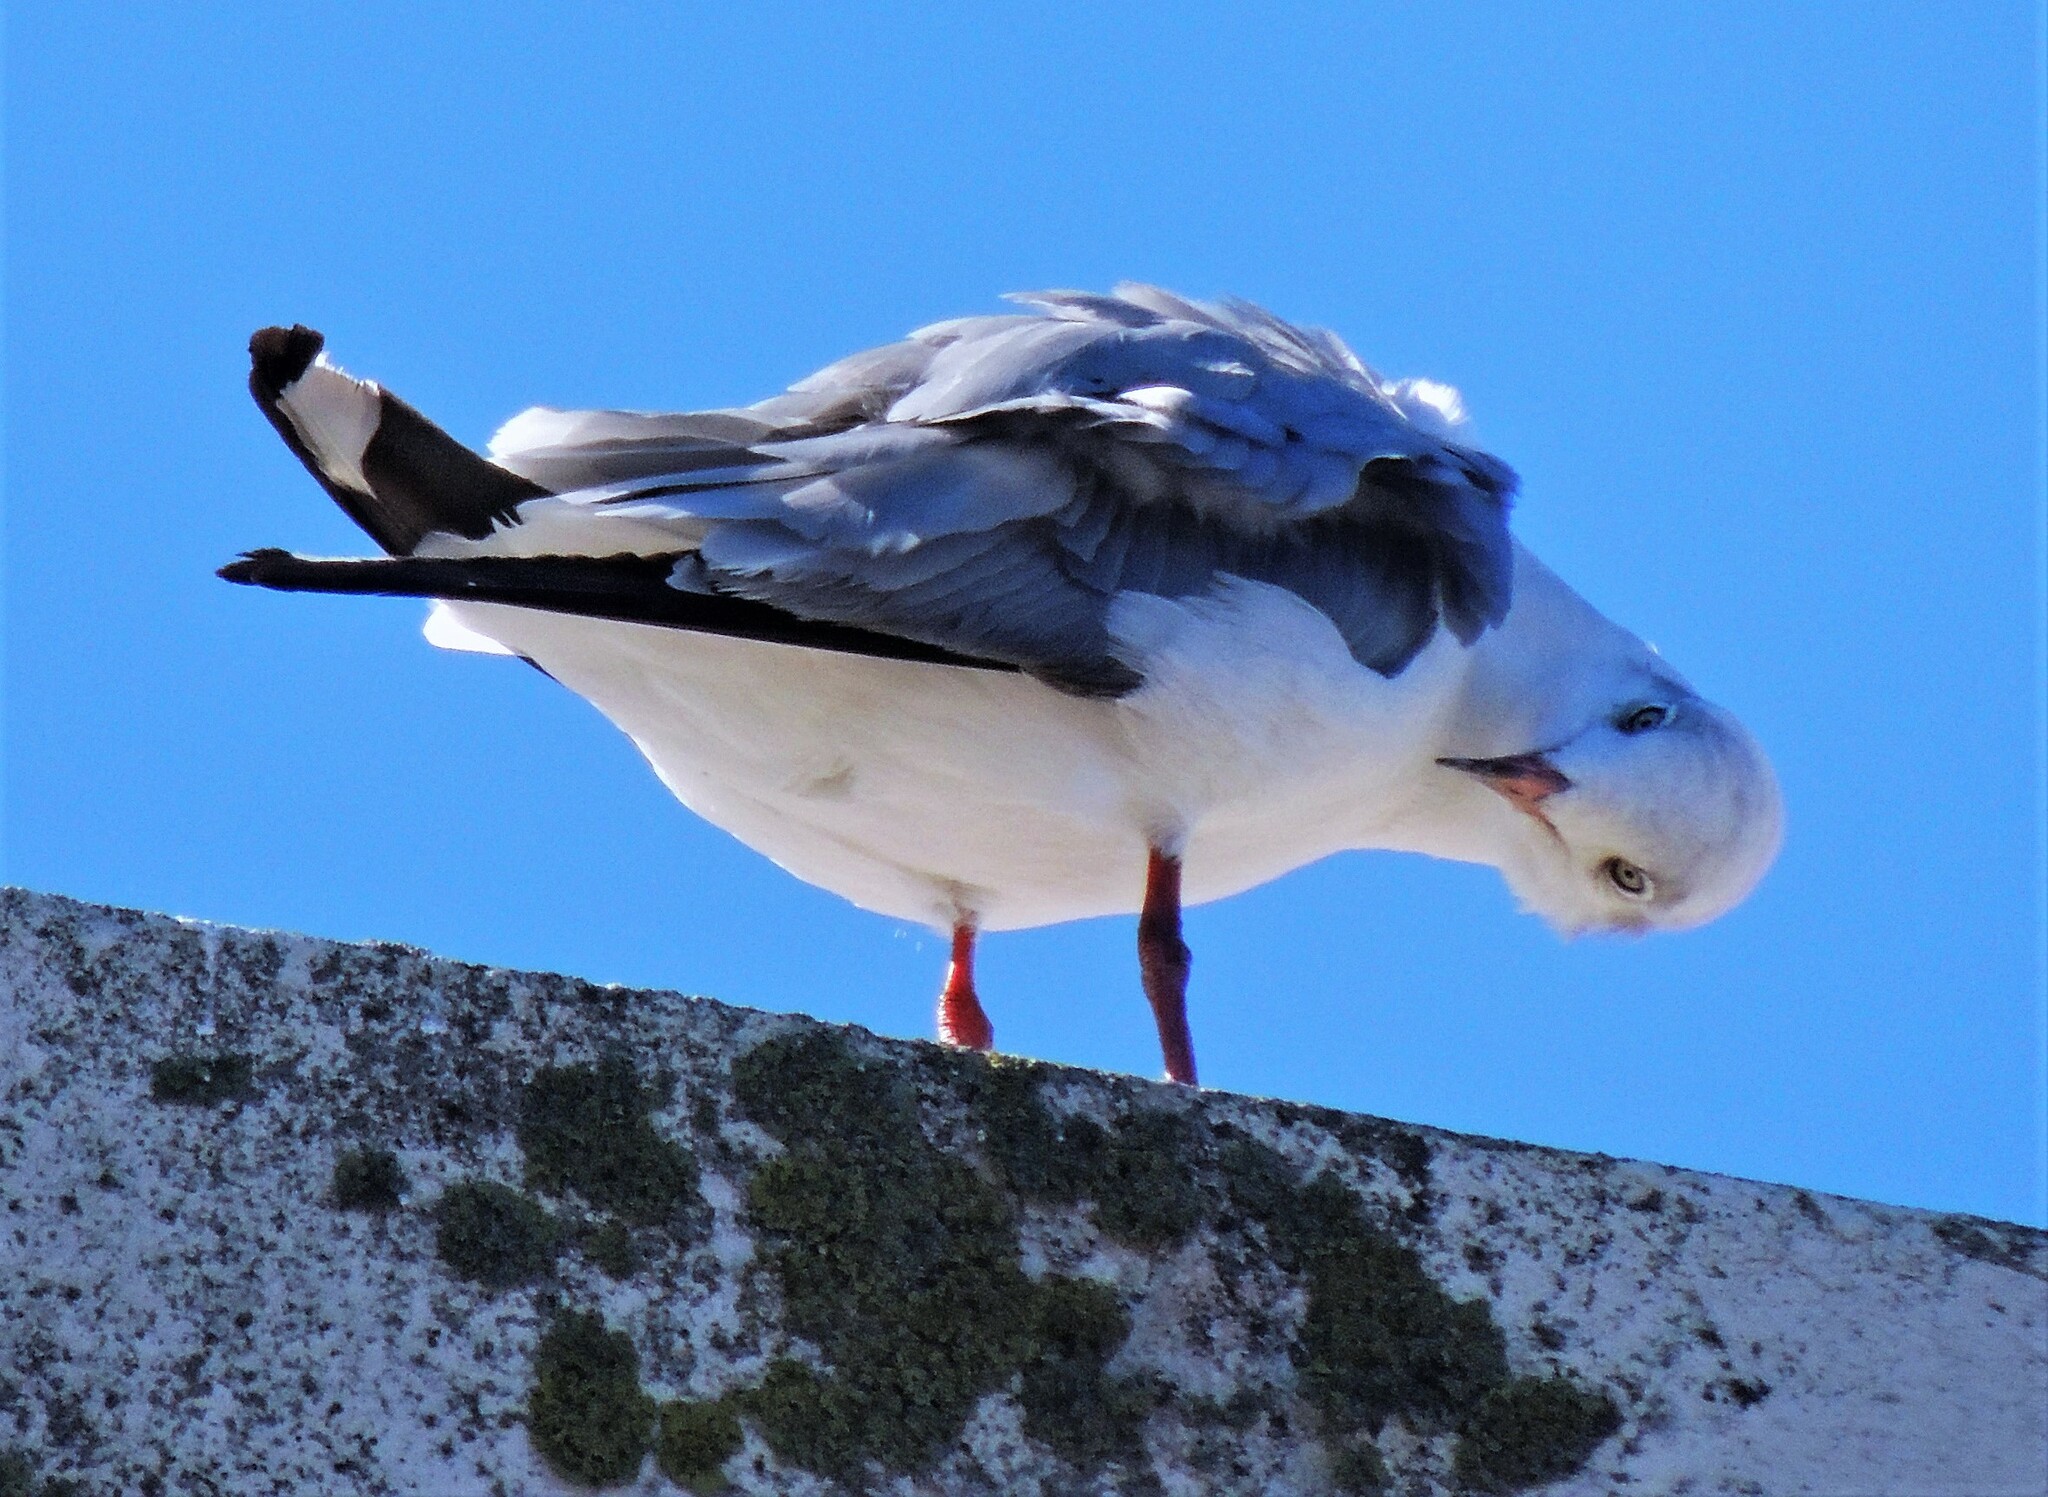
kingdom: Animalia
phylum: Chordata
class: Aves
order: Charadriiformes
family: Laridae
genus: Chroicocephalus
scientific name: Chroicocephalus cirrocephalus
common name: Grey-headed gull
